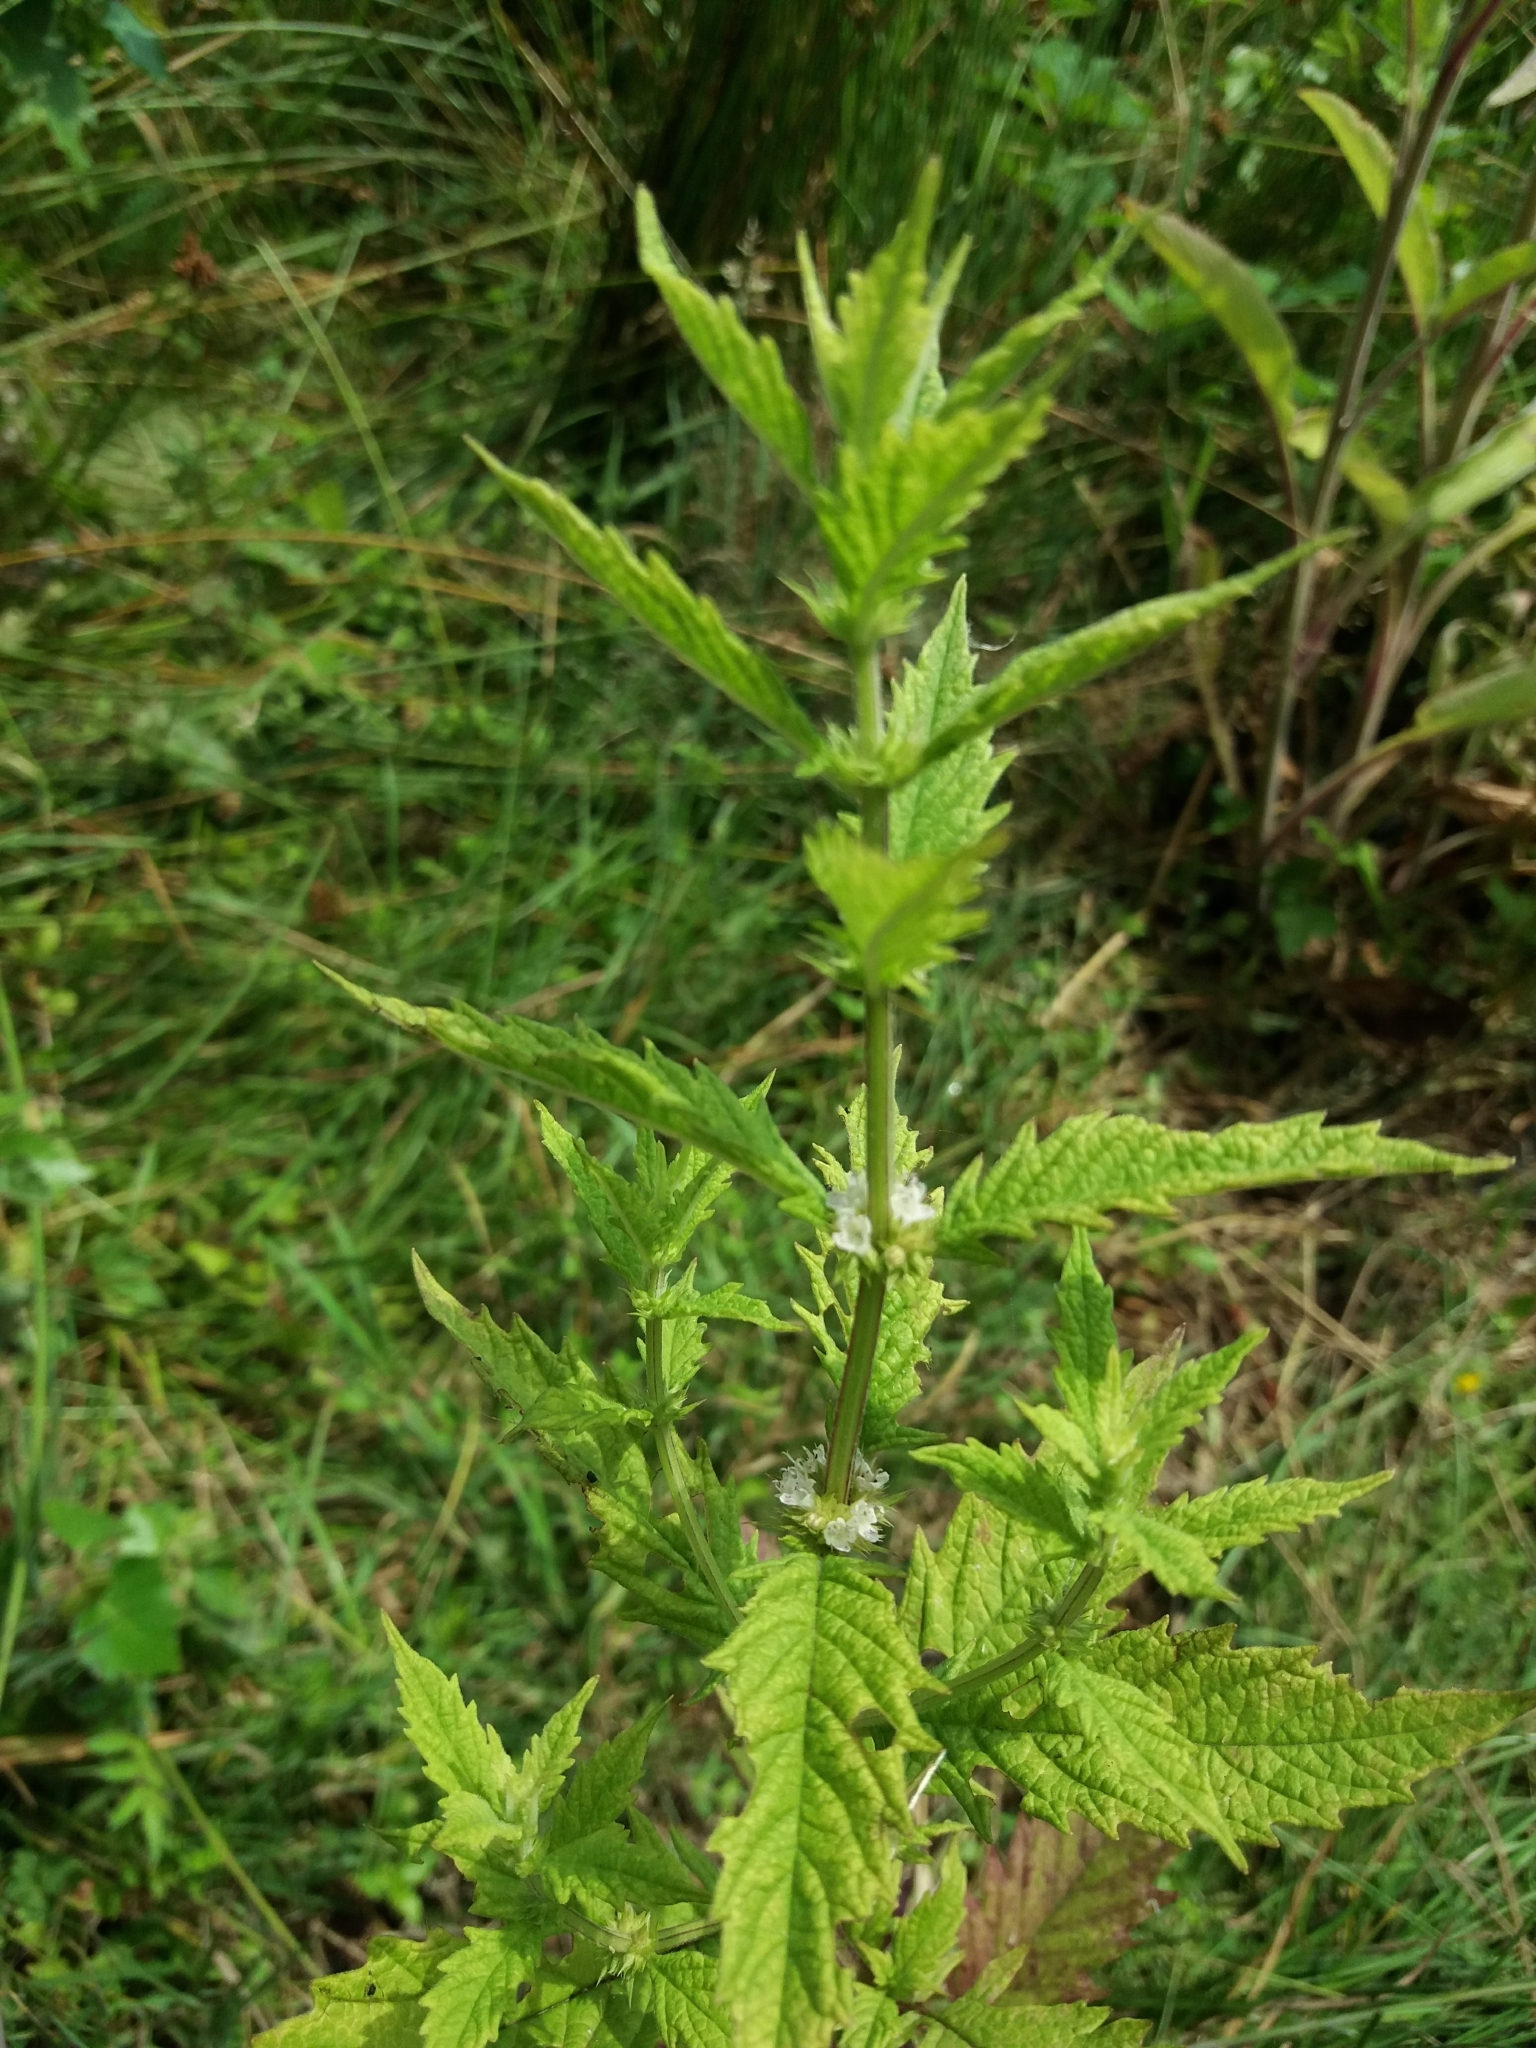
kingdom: Plantae
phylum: Tracheophyta
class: Magnoliopsida
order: Lamiales
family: Lamiaceae
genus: Lycopus
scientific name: Lycopus europaeus
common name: European bugleweed
